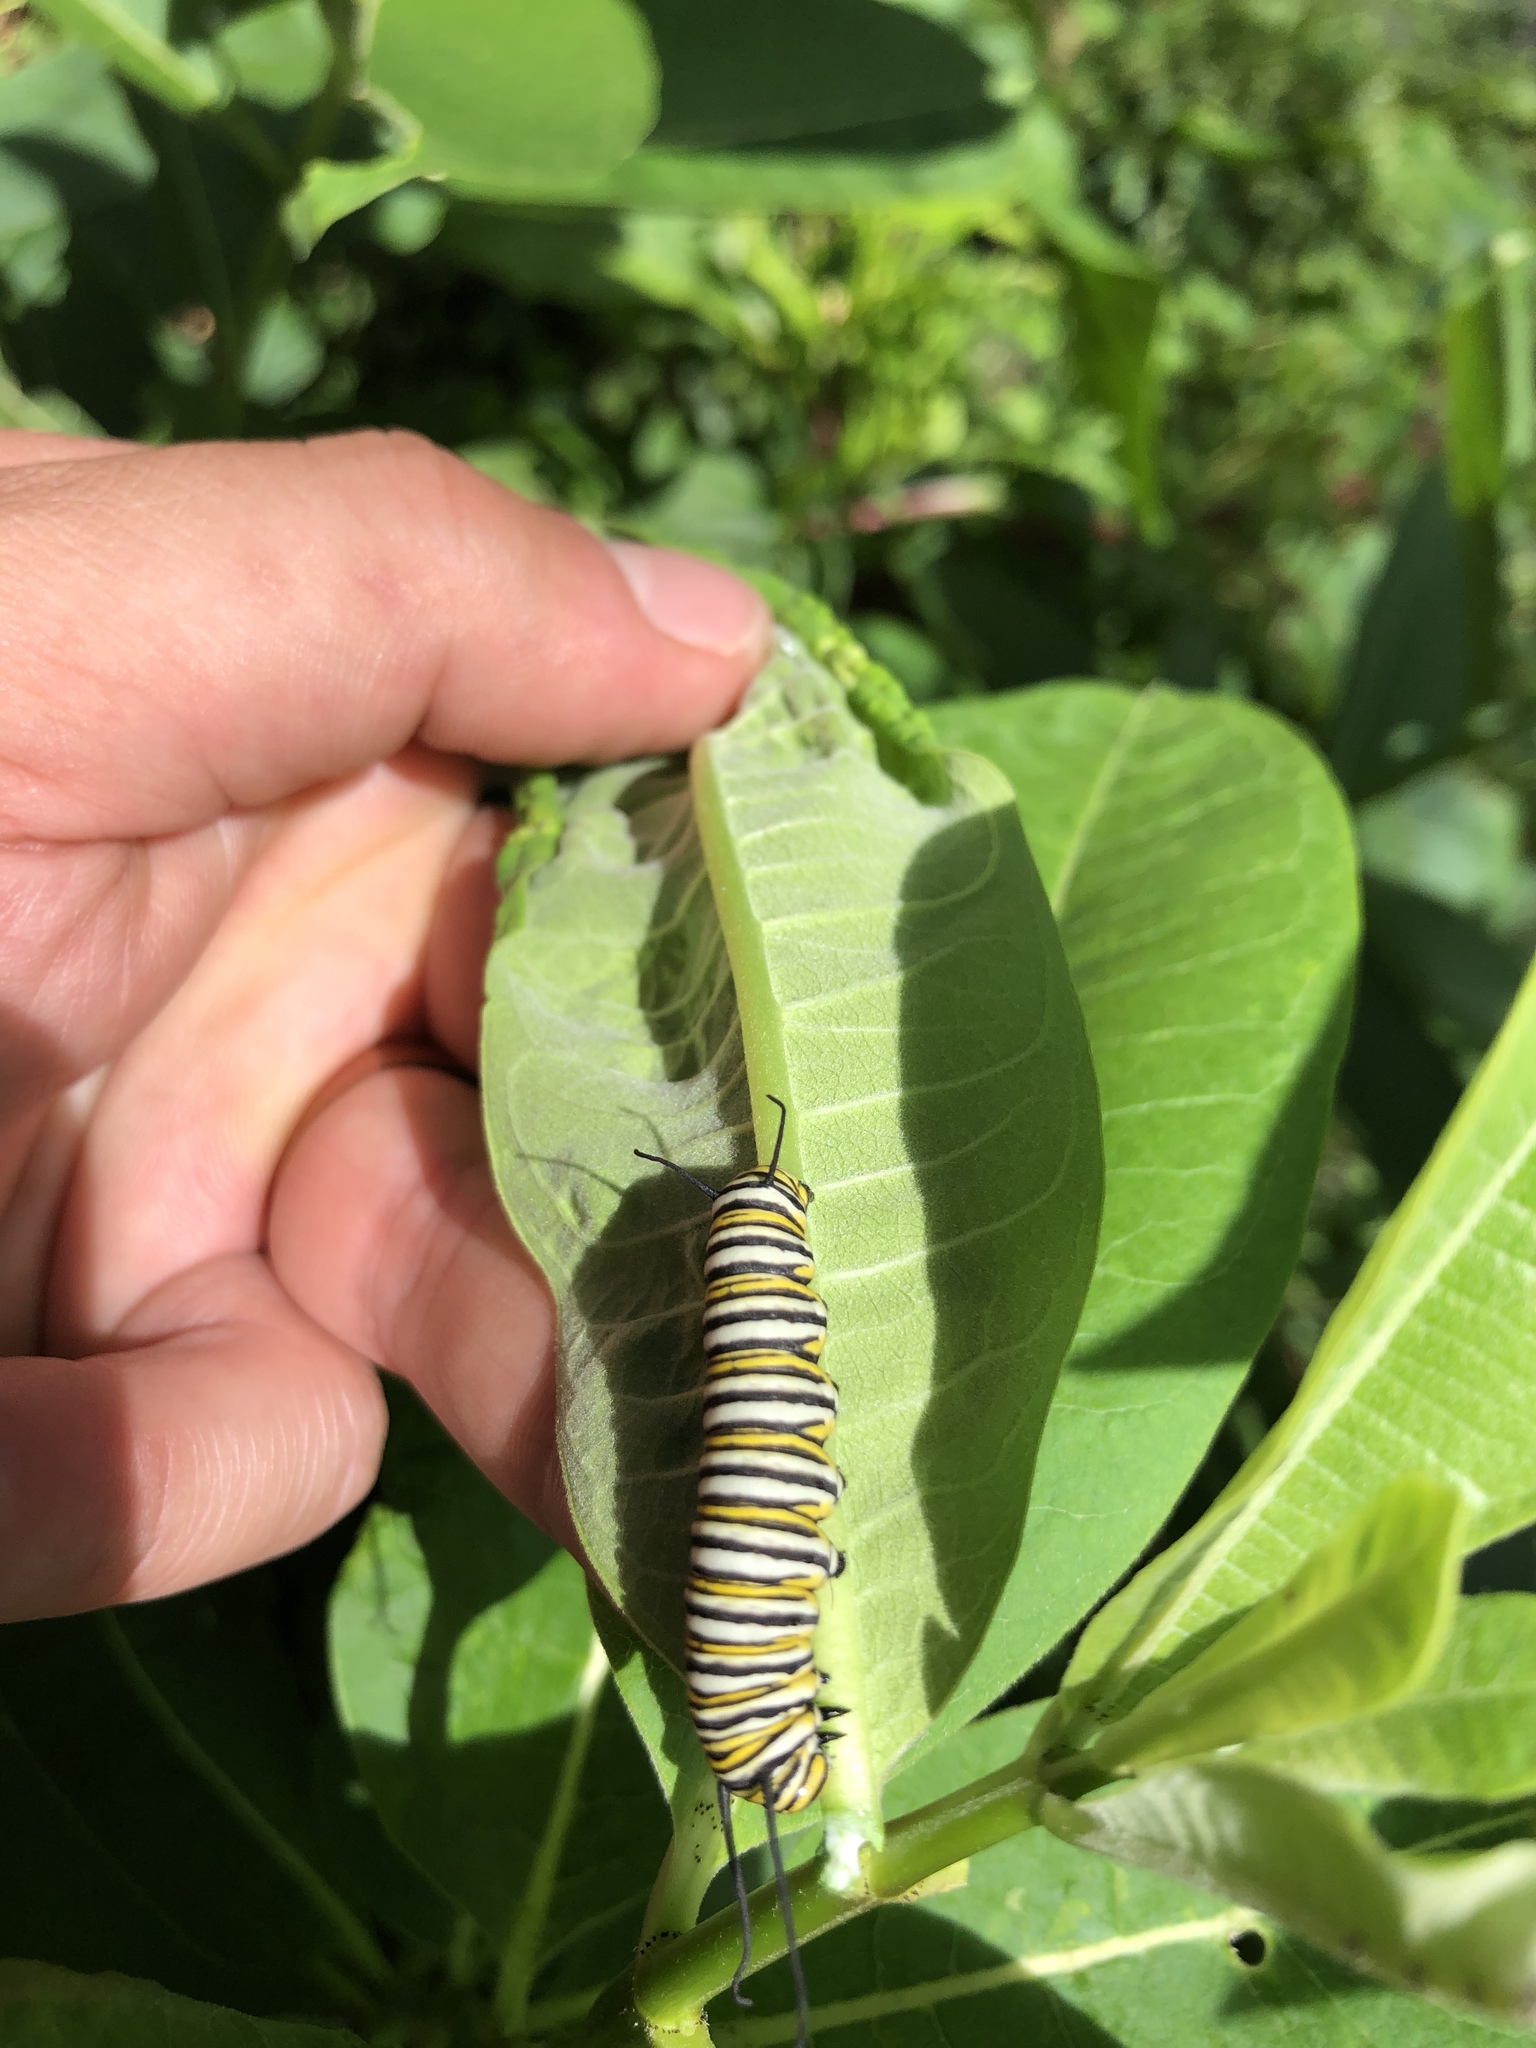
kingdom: Animalia
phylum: Arthropoda
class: Insecta
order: Lepidoptera
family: Nymphalidae
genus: Danaus
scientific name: Danaus plexippus
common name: Monarch
